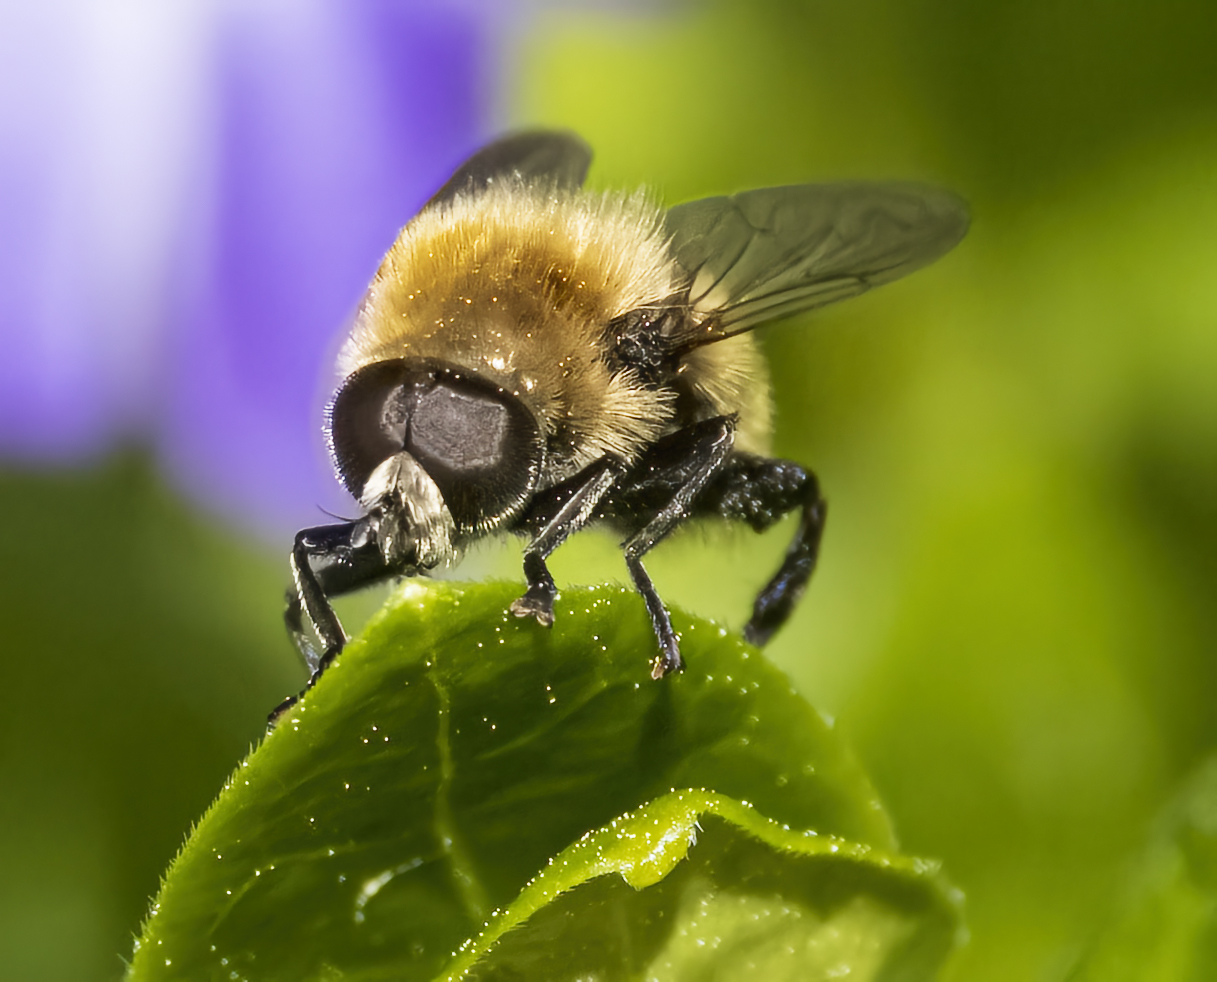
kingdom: Animalia
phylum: Arthropoda
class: Insecta
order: Diptera
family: Syrphidae
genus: Merodon
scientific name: Merodon equestris
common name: Greater bulb-fly
